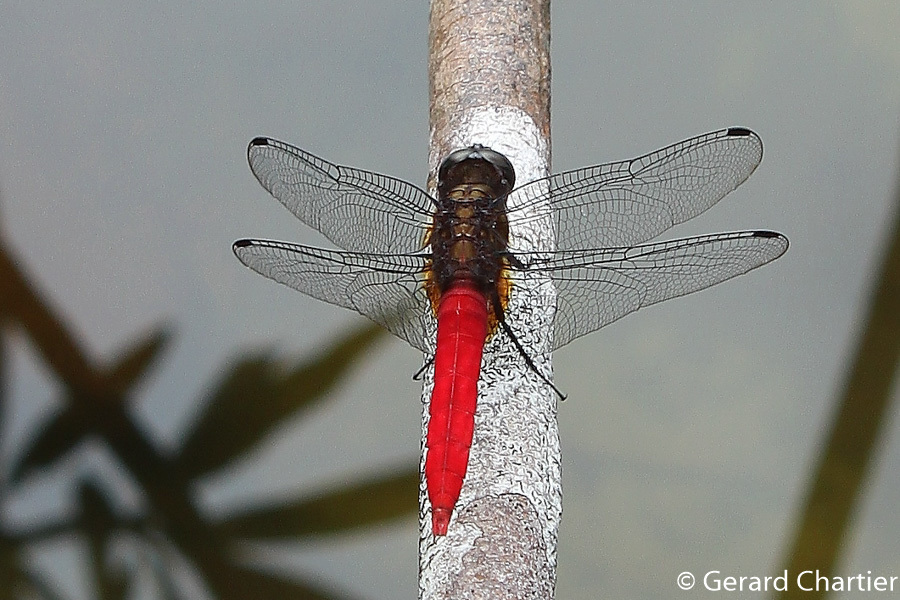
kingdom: Animalia
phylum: Arthropoda
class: Insecta
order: Odonata
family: Libellulidae
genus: Orthetrum
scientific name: Orthetrum chrysis
